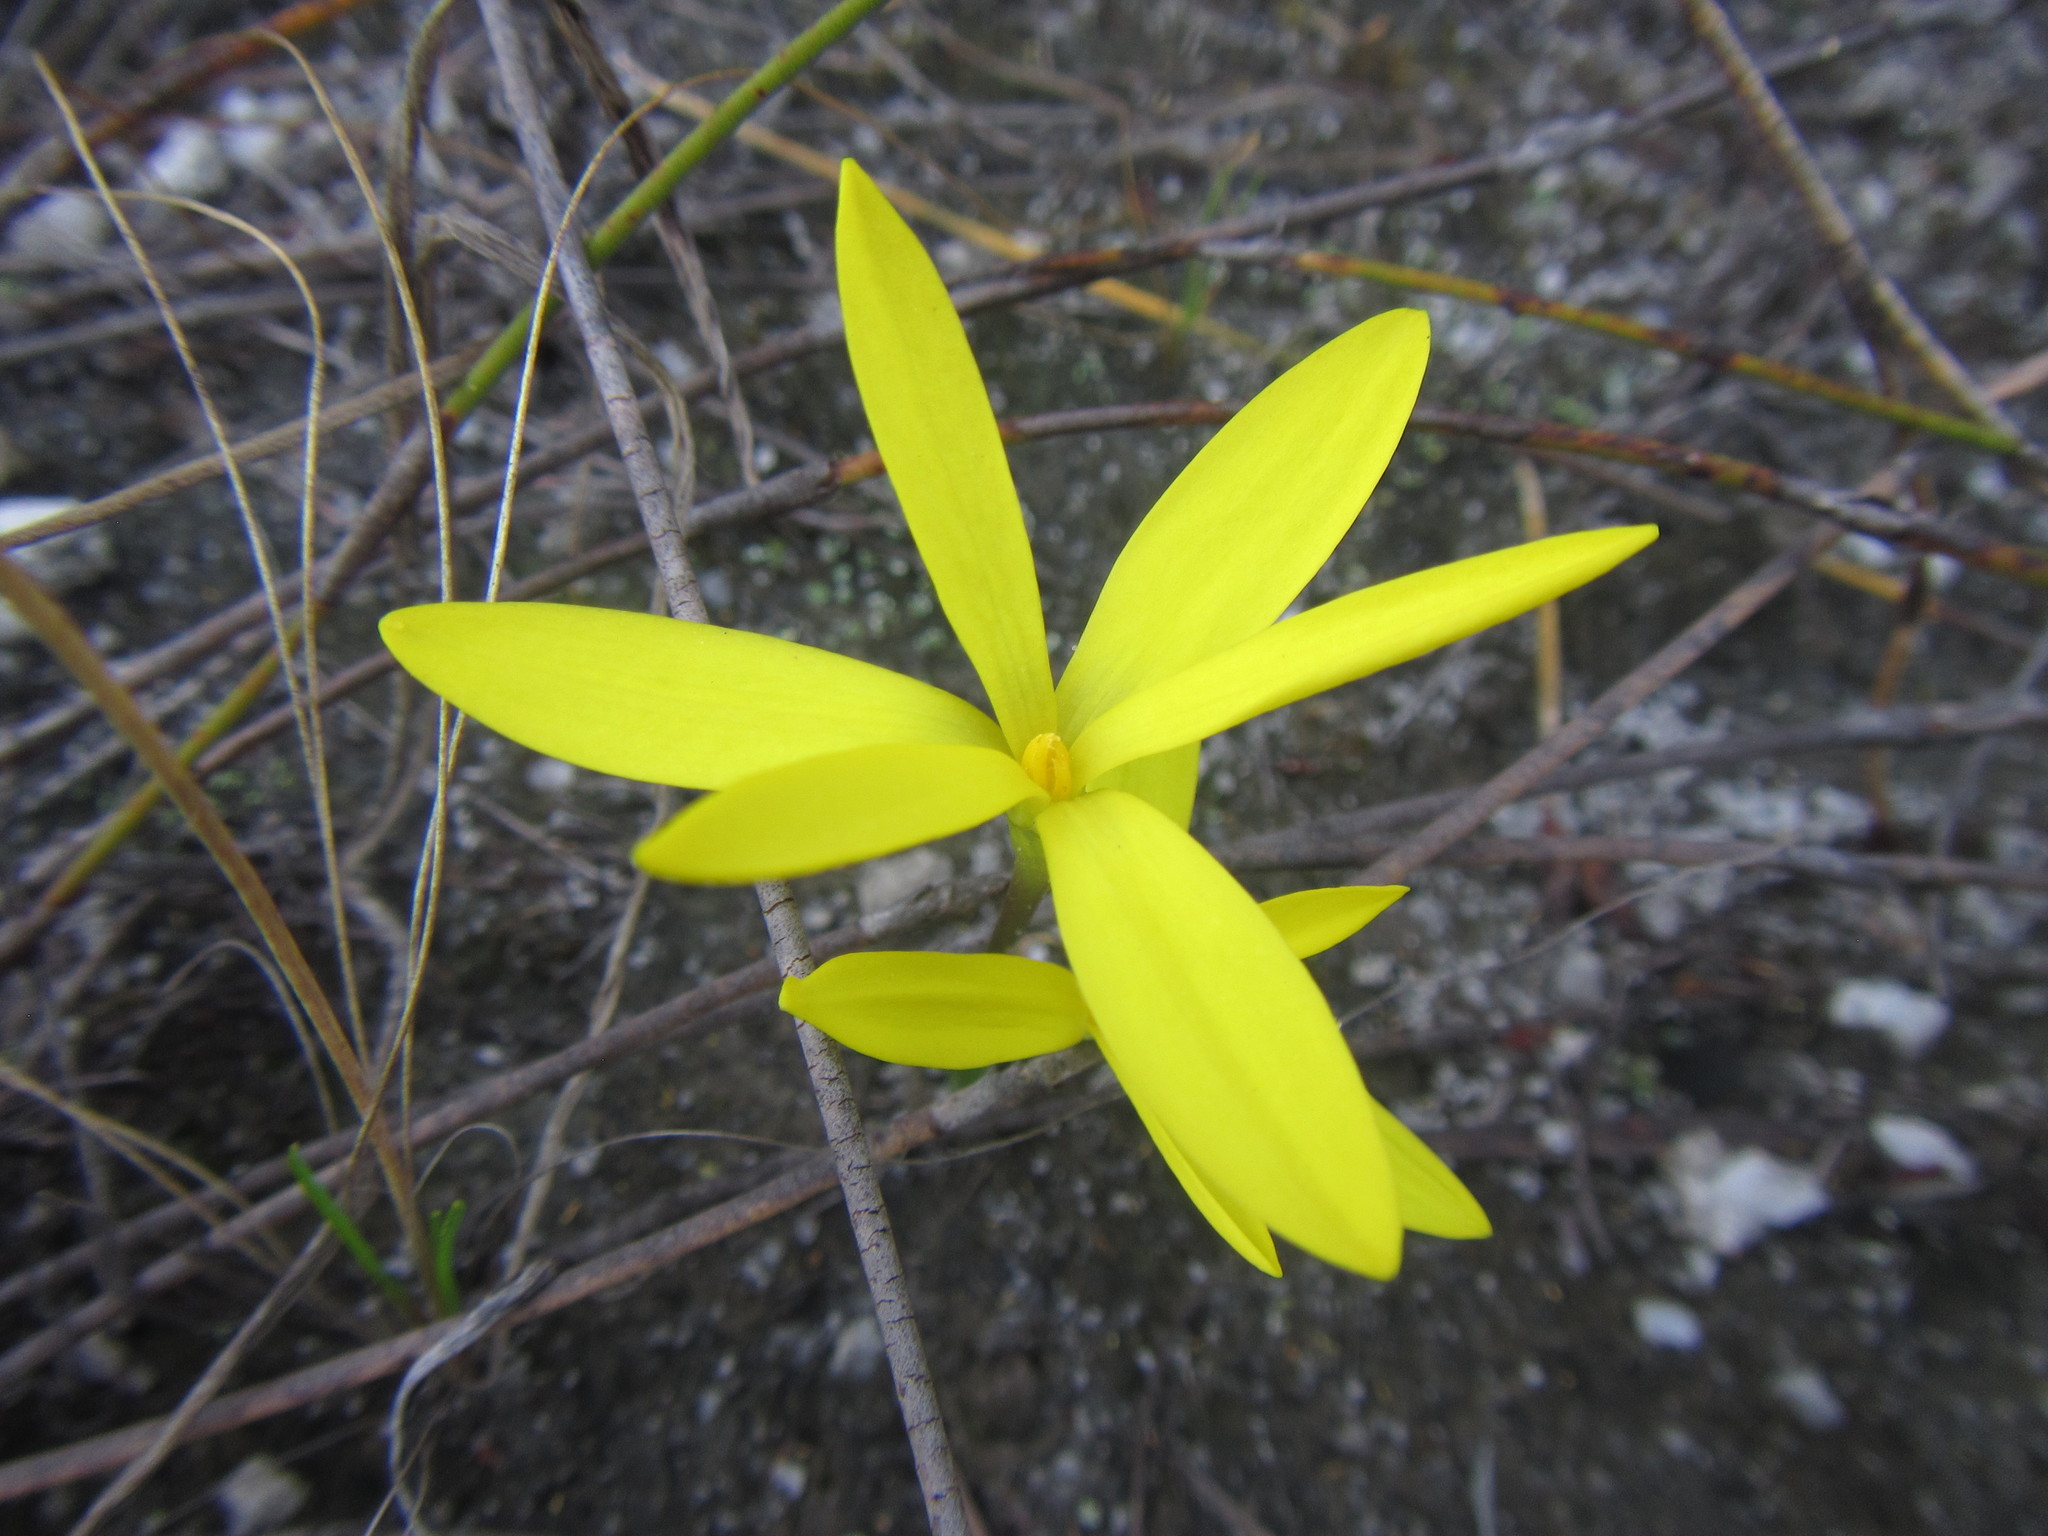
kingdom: Plantae
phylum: Tracheophyta
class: Liliopsida
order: Asparagales
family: Hypoxidaceae
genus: Pauridia
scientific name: Pauridia monophylla
